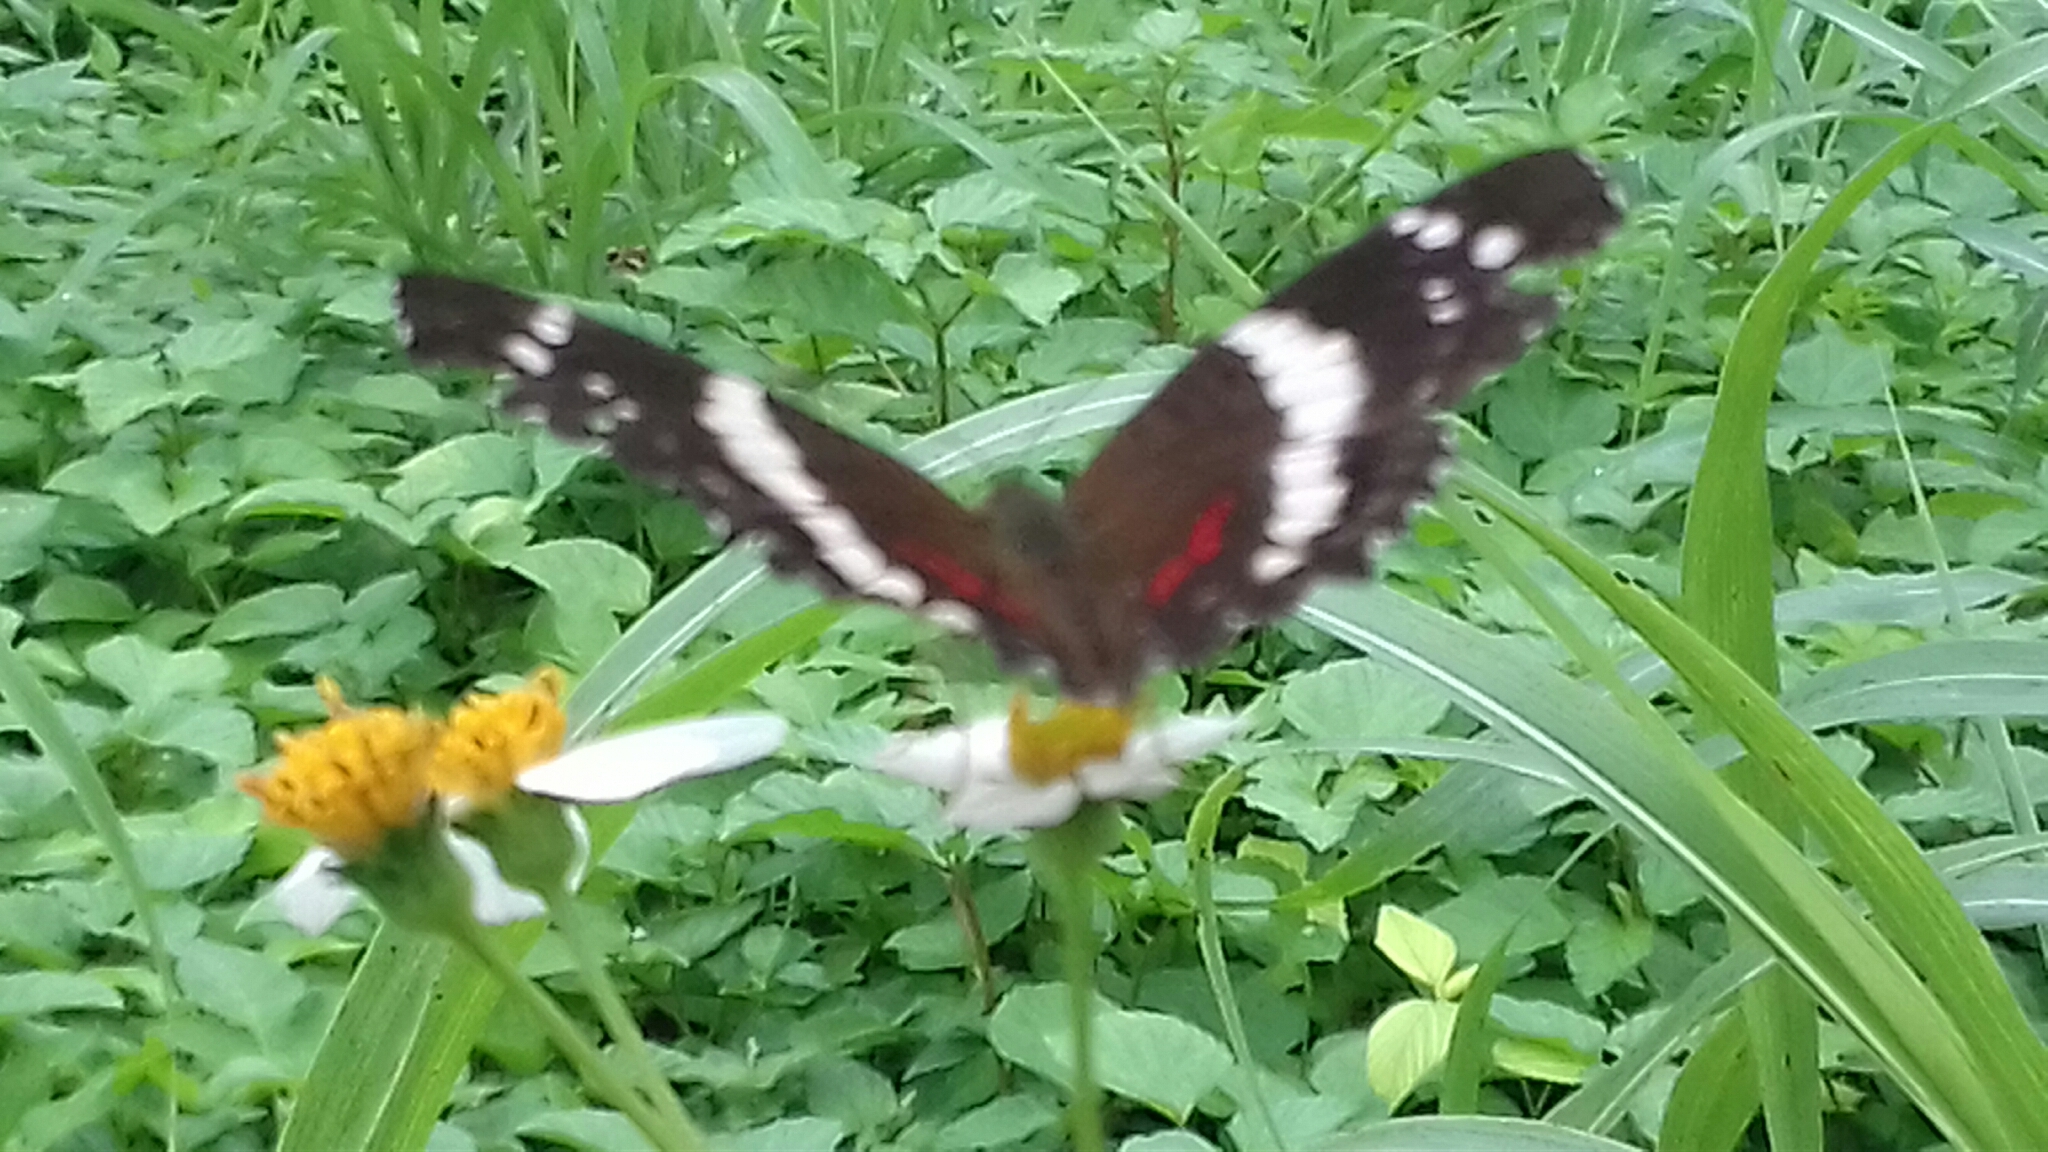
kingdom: Animalia
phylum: Arthropoda
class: Insecta
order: Lepidoptera
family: Nymphalidae
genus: Anartia
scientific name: Anartia fatima
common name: Banded peacock
